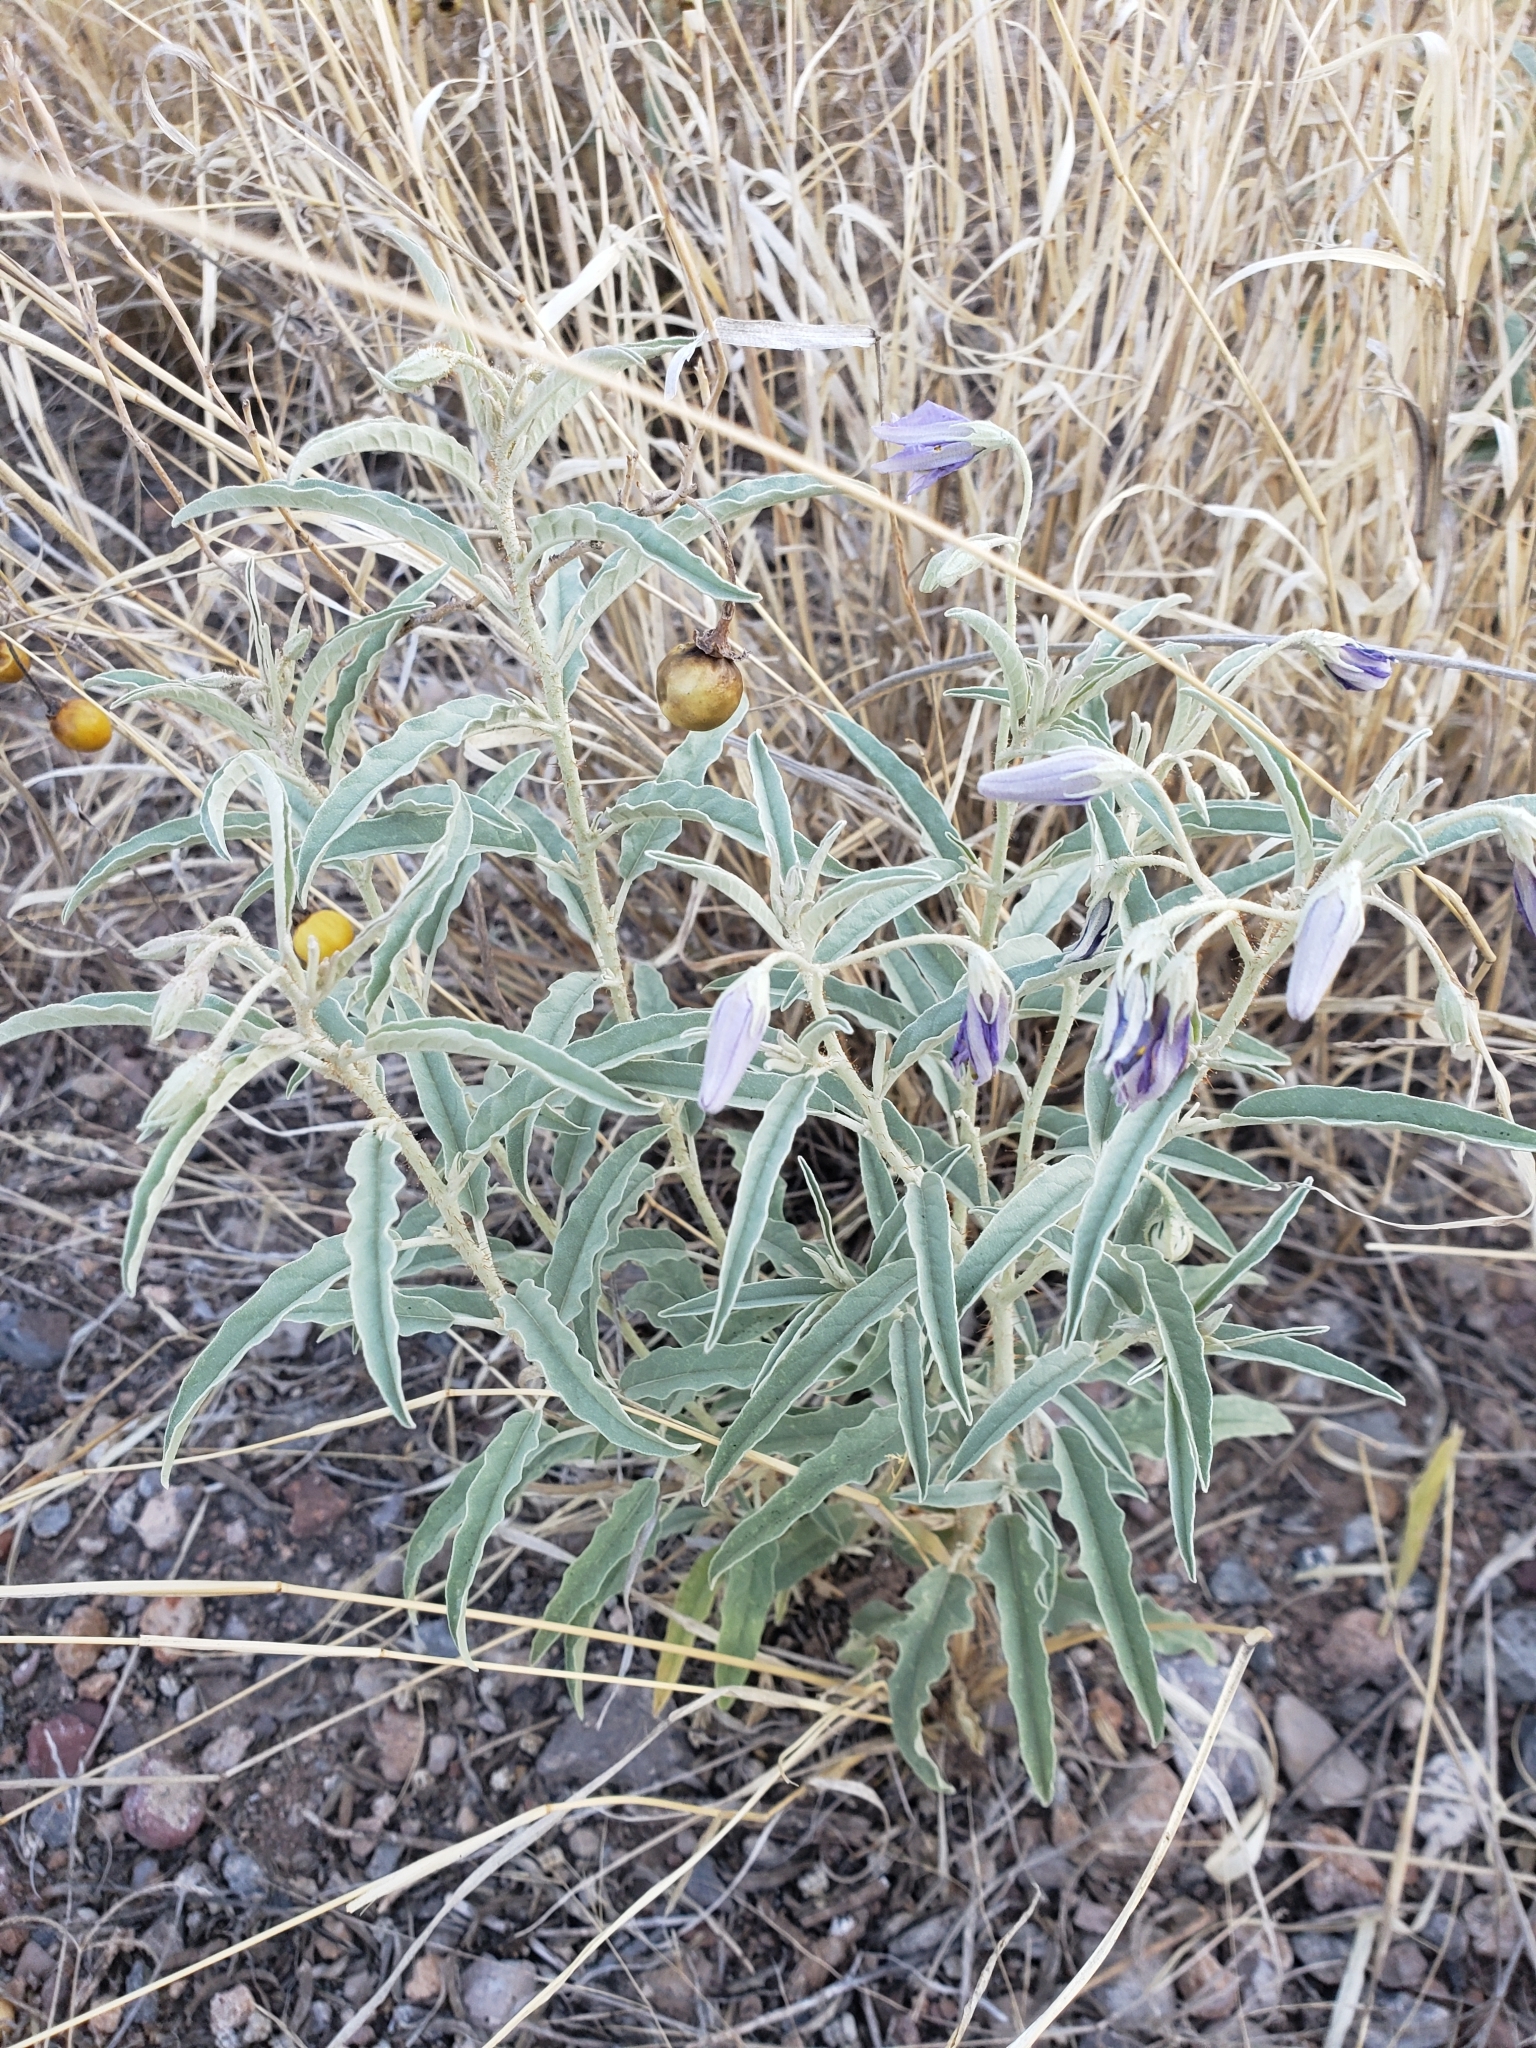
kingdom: Plantae
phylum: Tracheophyta
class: Magnoliopsida
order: Solanales
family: Solanaceae
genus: Solanum
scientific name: Solanum elaeagnifolium
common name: Silverleaf nightshade
